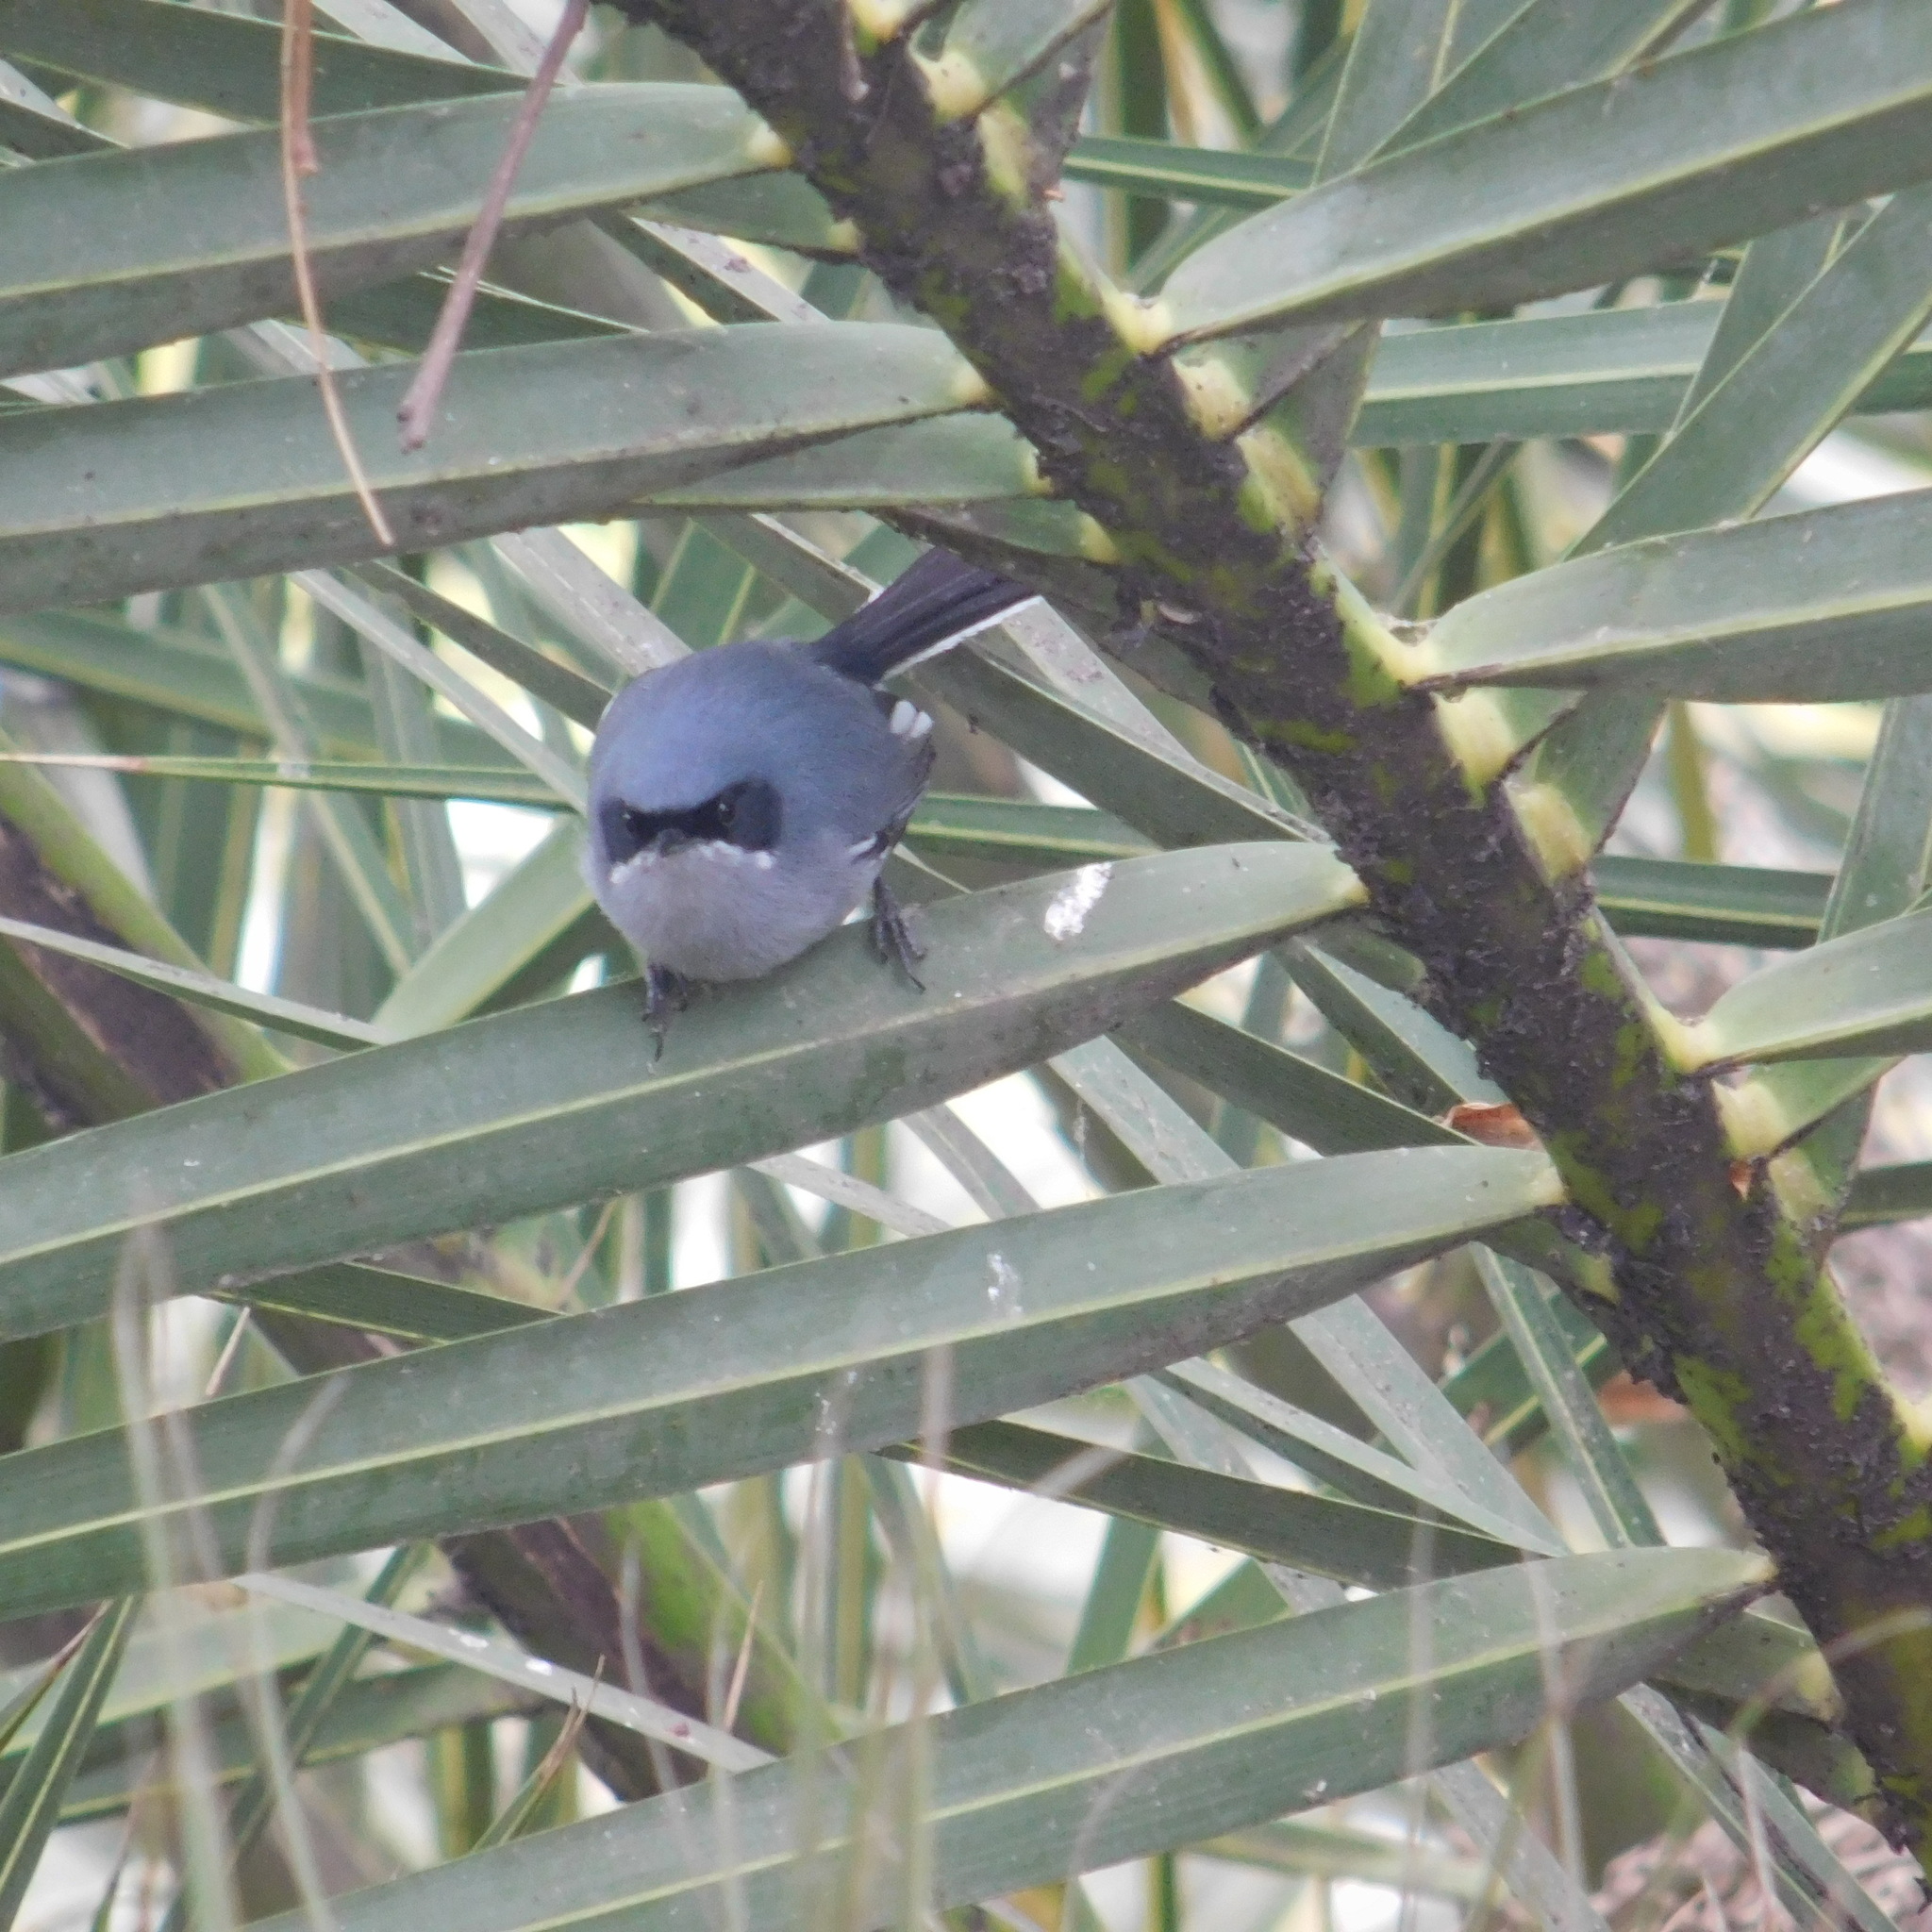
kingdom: Animalia
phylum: Chordata
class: Aves
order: Passeriformes
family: Polioptilidae
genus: Polioptila
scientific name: Polioptila dumicola
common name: Masked gnatcatcher
